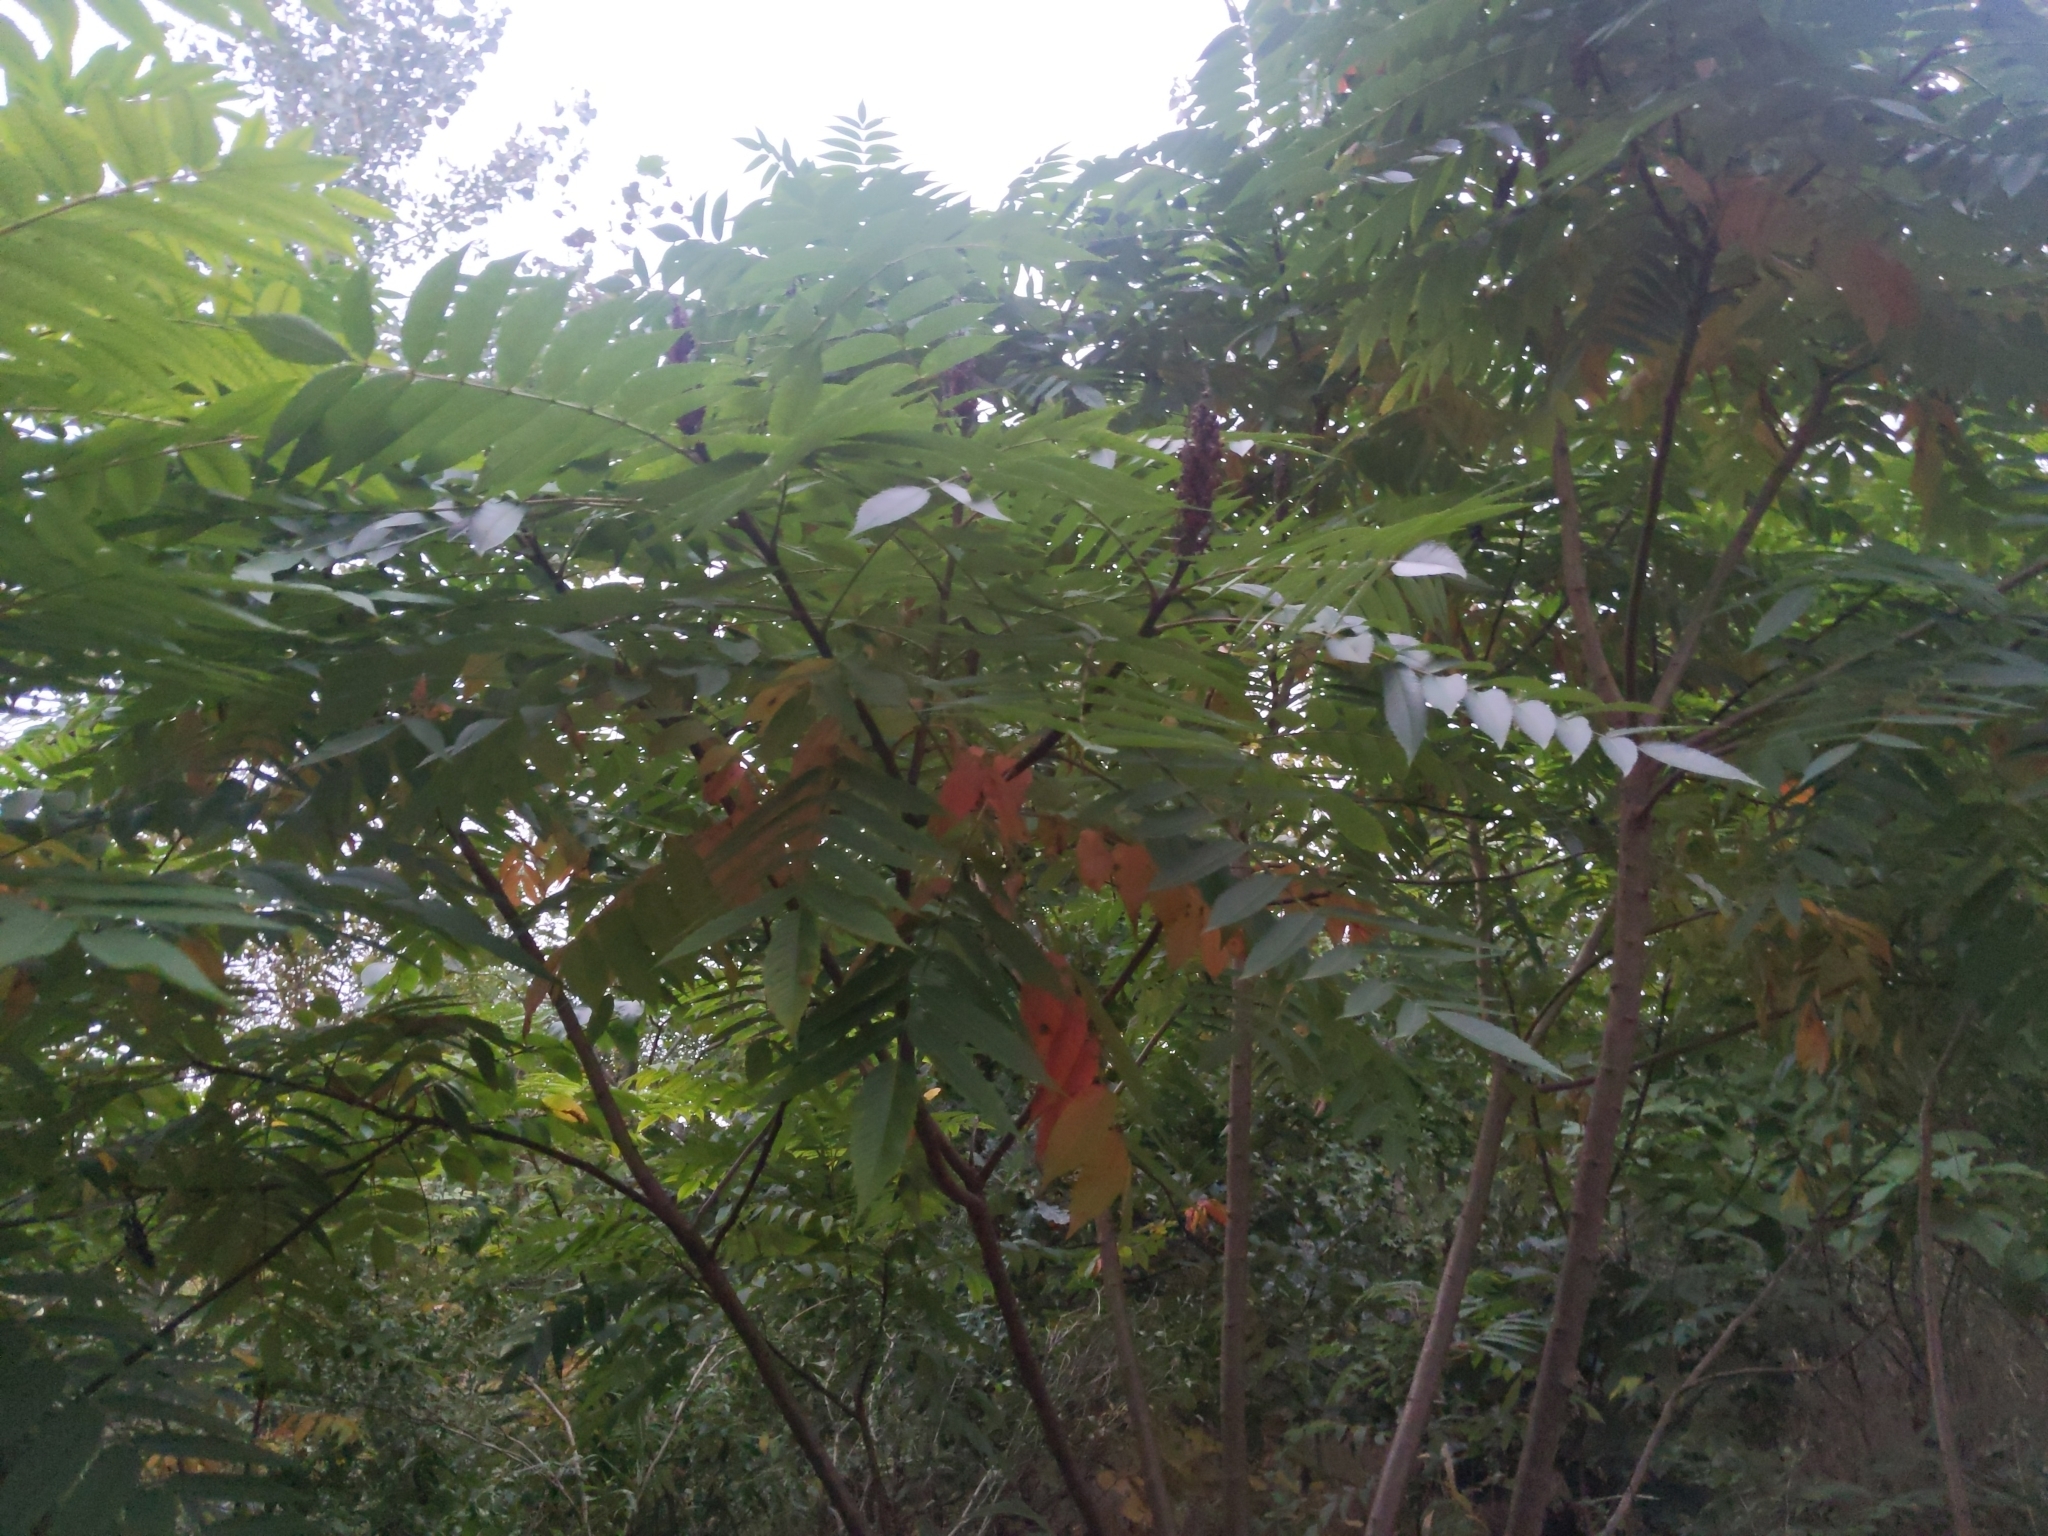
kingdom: Plantae
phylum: Tracheophyta
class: Magnoliopsida
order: Sapindales
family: Anacardiaceae
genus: Rhus
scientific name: Rhus glabra
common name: Scarlet sumac
